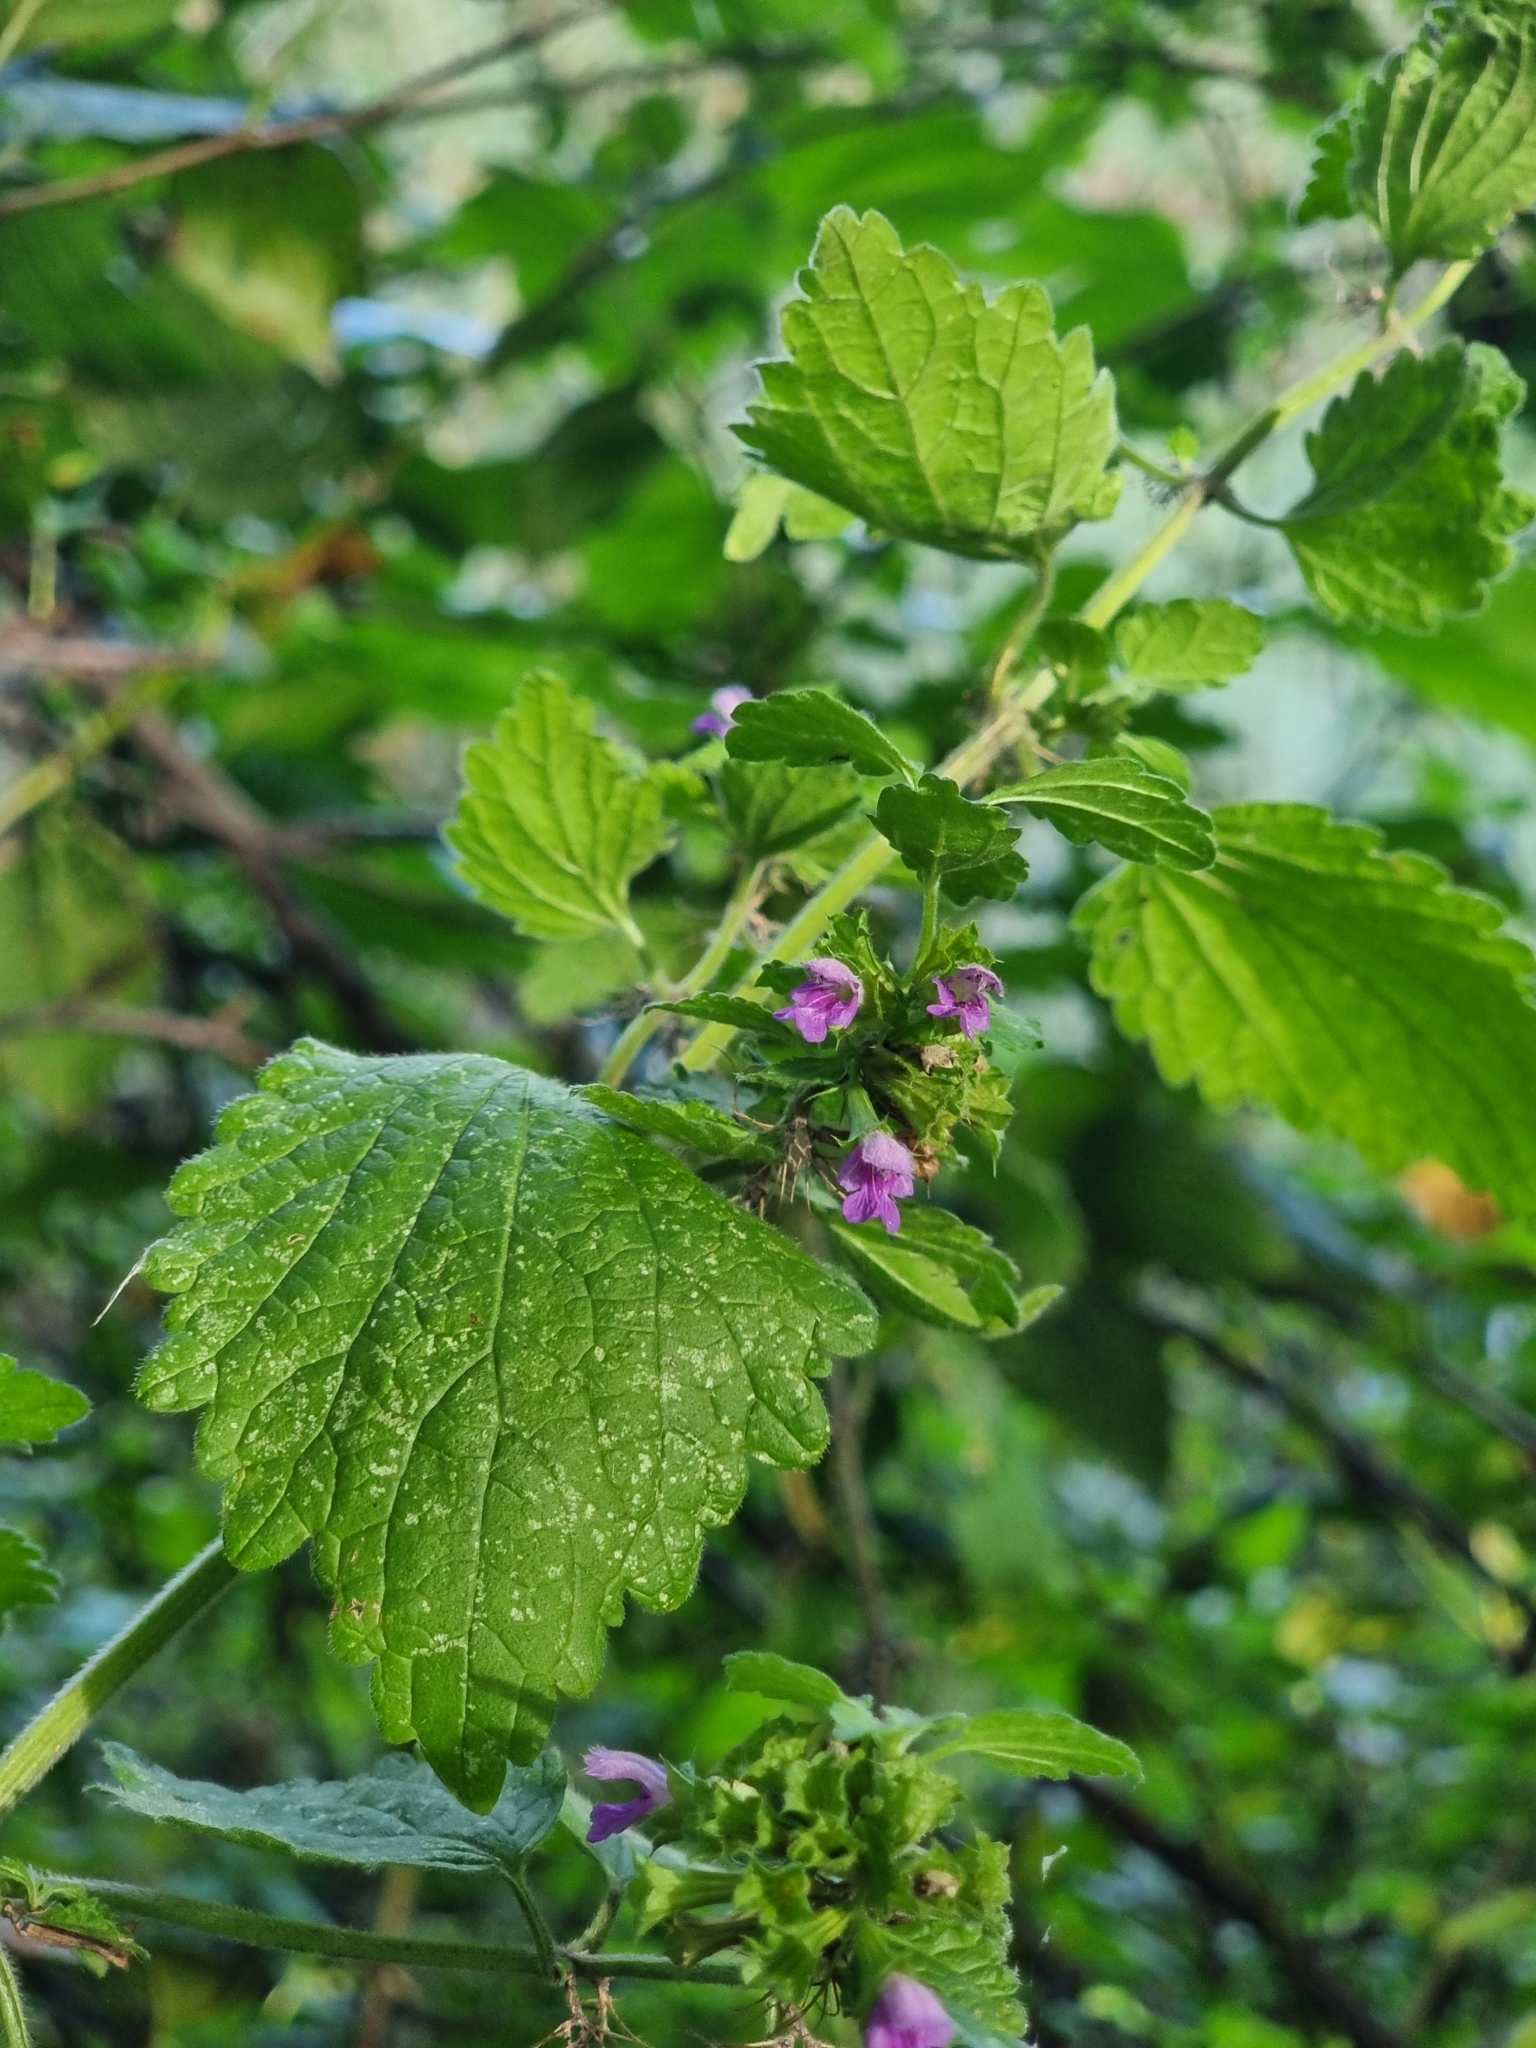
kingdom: Plantae
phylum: Tracheophyta
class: Magnoliopsida
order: Lamiales
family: Lamiaceae
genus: Ballota
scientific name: Ballota nigra
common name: Black horehound
